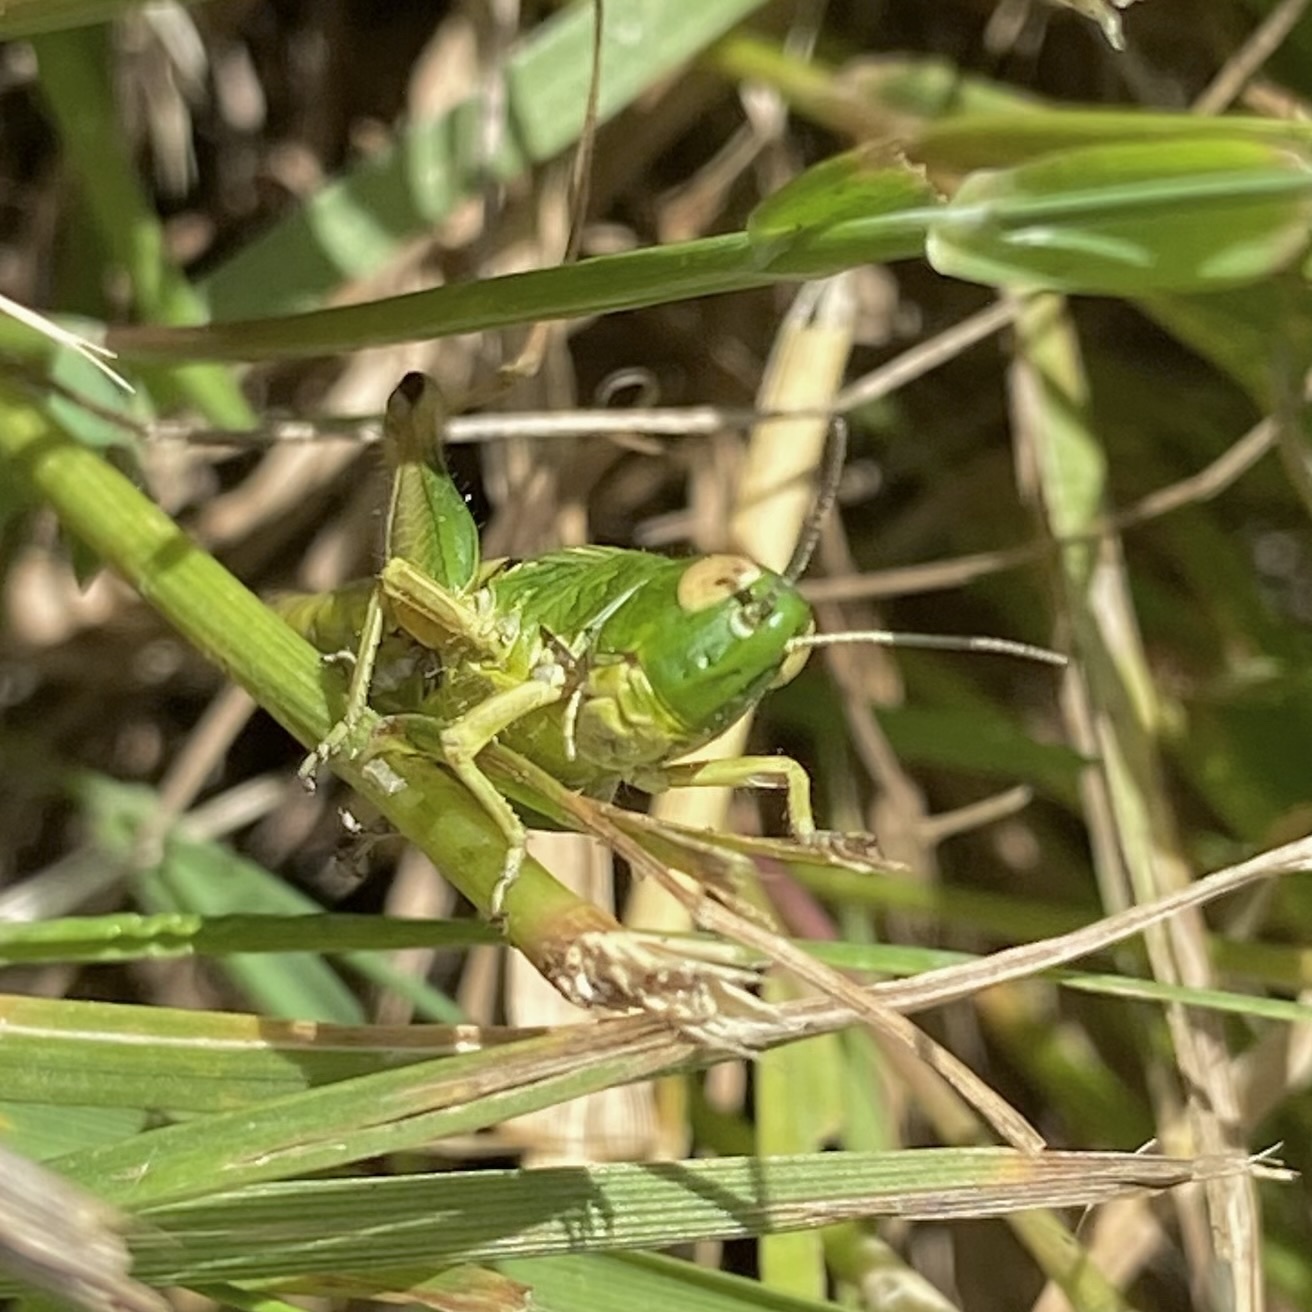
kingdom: Animalia
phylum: Arthropoda
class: Insecta
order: Orthoptera
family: Acrididae
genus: Pseudochorthippus
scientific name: Pseudochorthippus parallelus
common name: Meadow grasshopper
